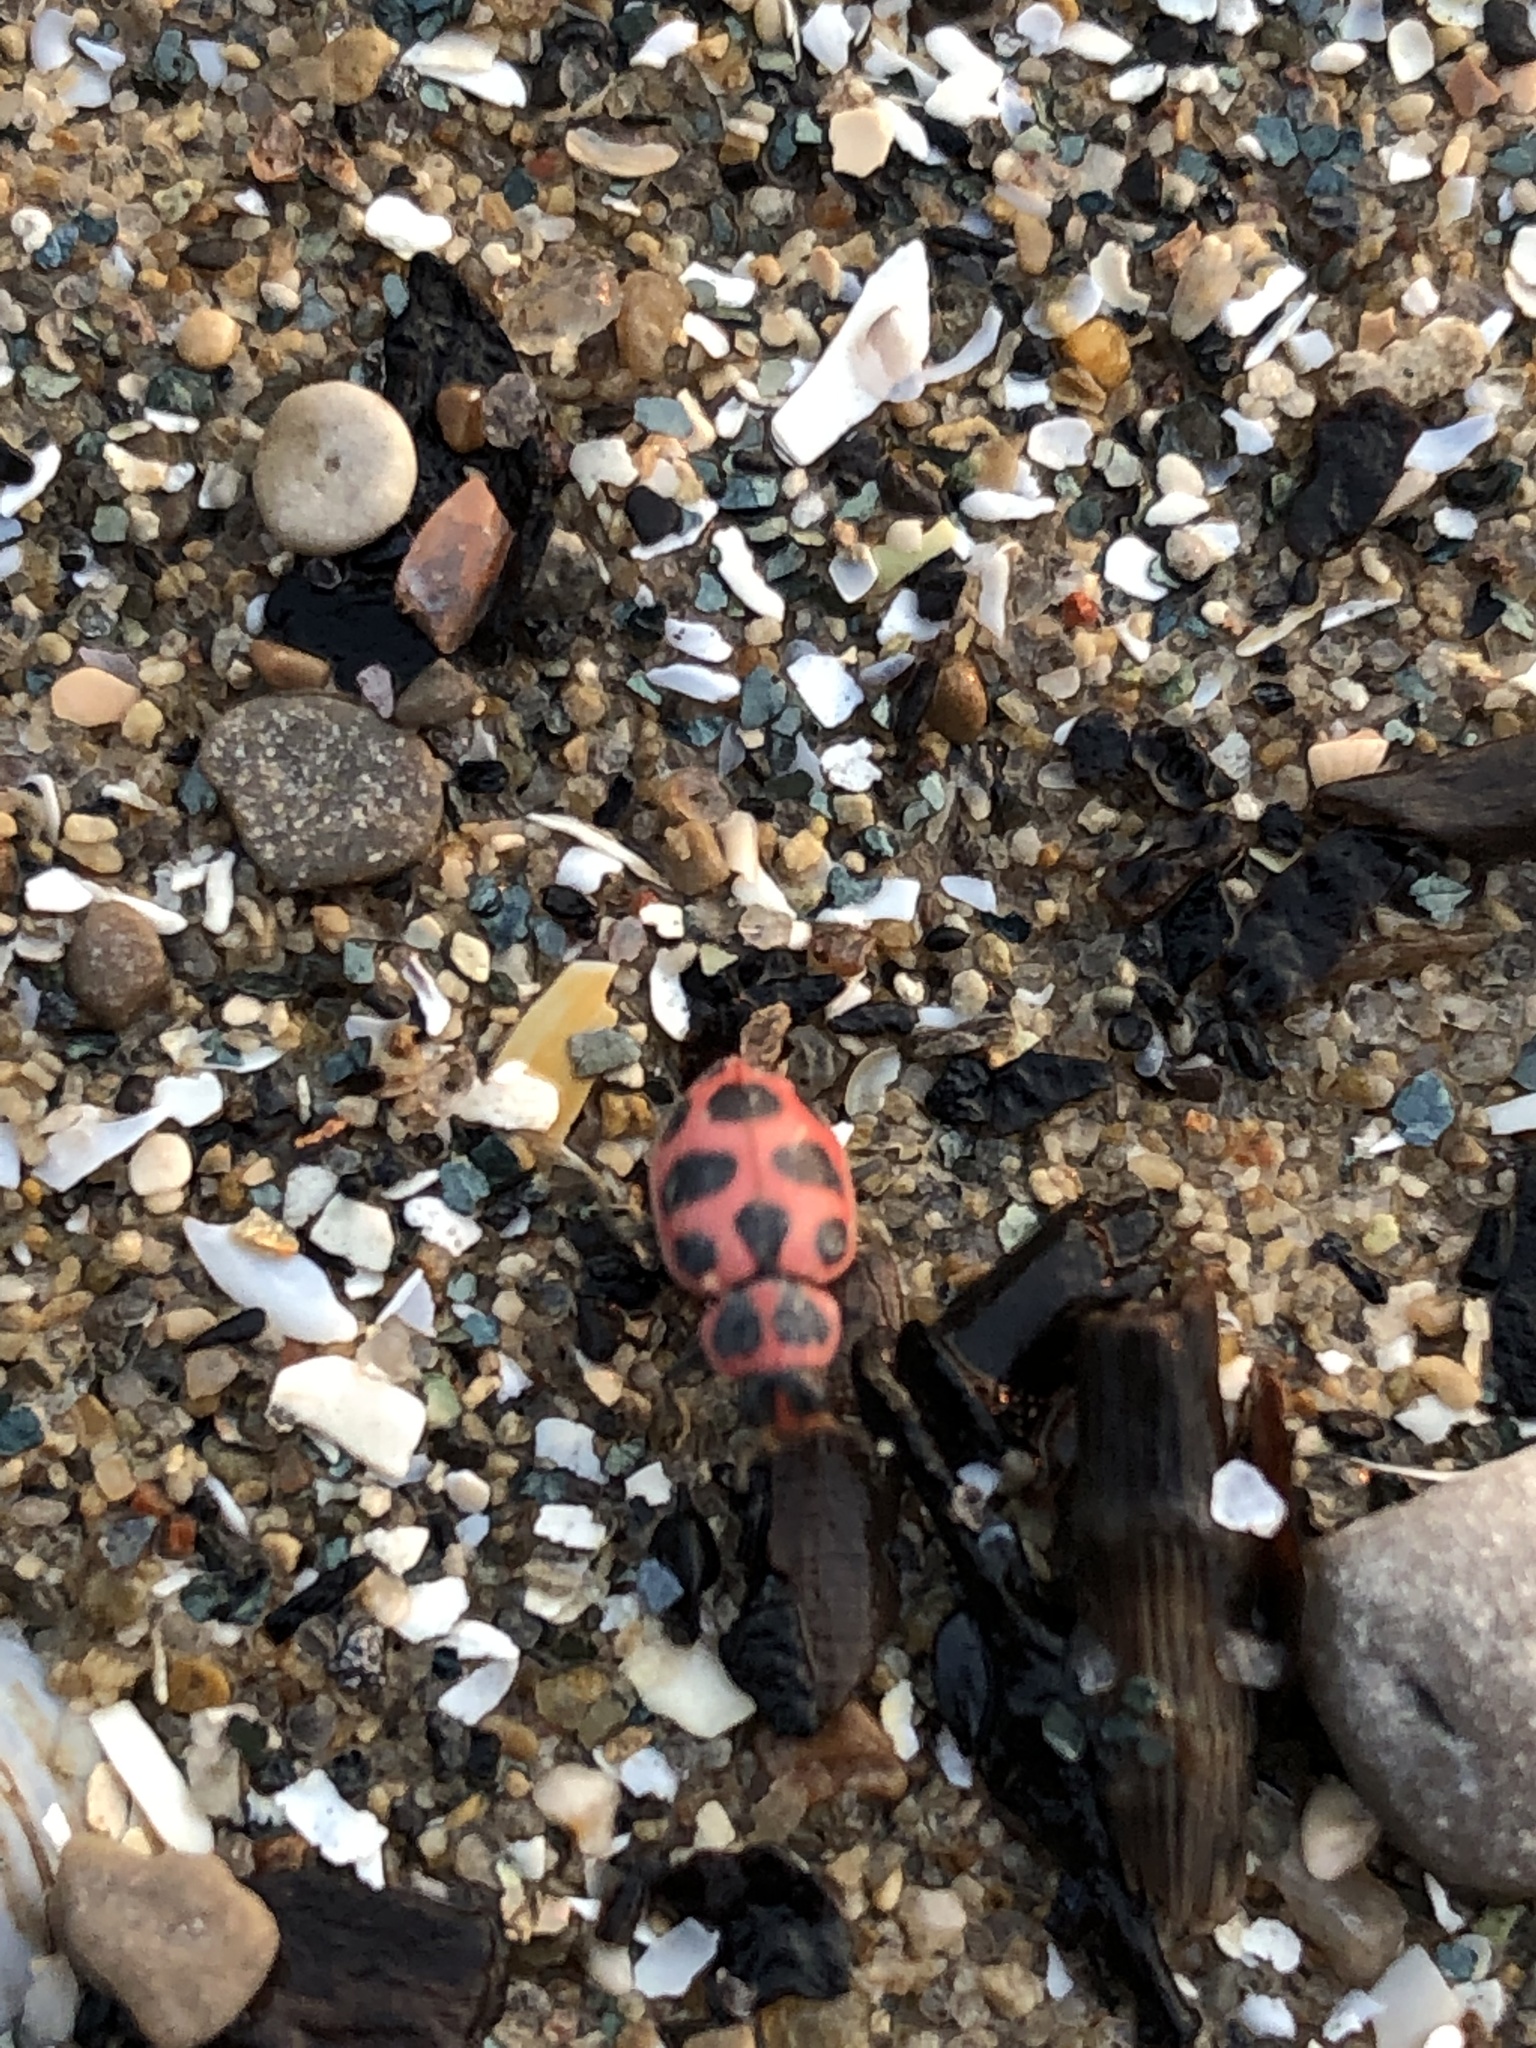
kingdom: Animalia
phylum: Arthropoda
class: Insecta
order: Coleoptera
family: Coccinellidae
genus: Coleomegilla
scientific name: Coleomegilla maculata
